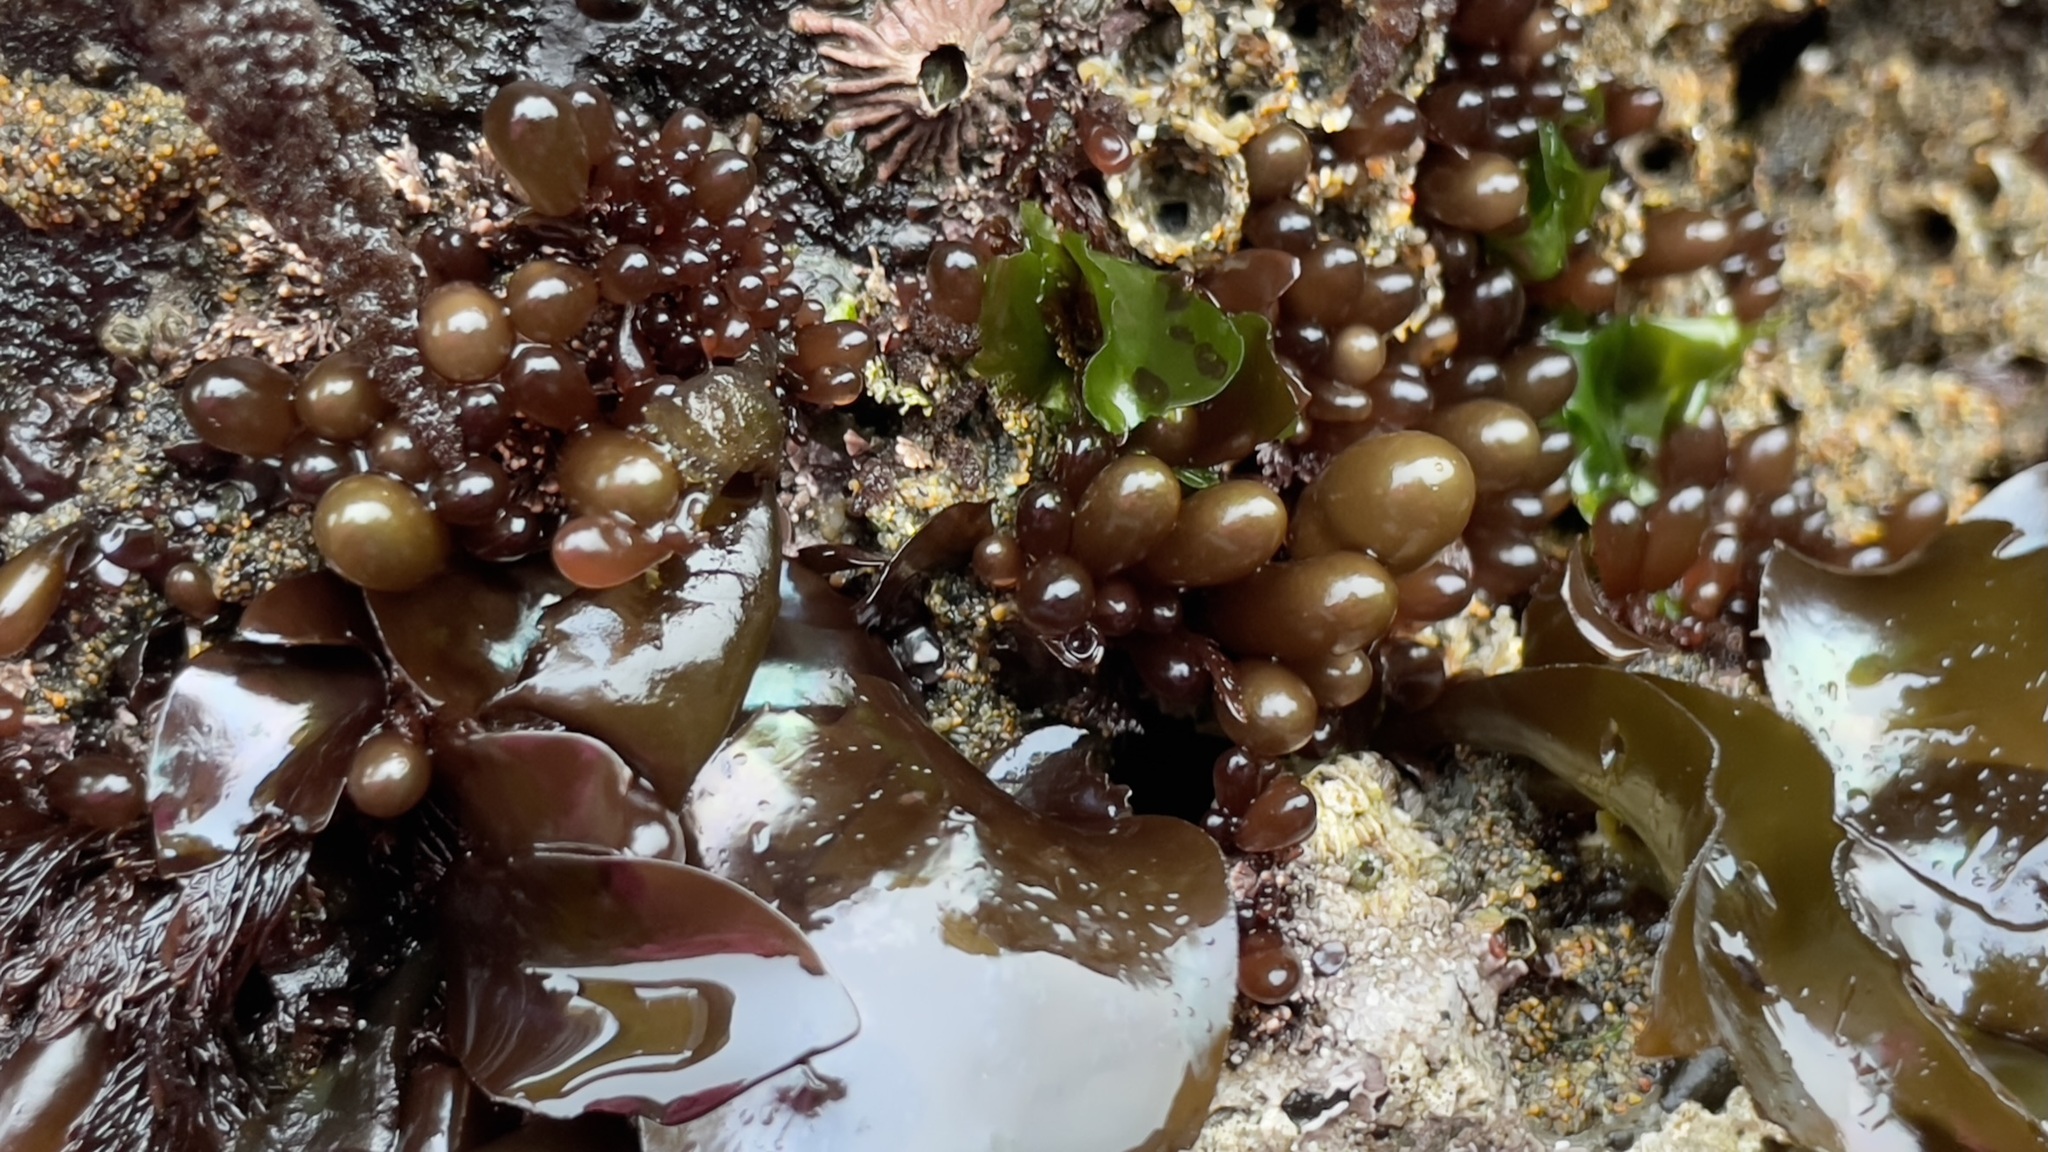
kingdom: Plantae
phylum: Rhodophyta
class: Florideophyceae
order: Palmariales
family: Palmariaceae
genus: Halosaccion
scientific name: Halosaccion glandiforme
